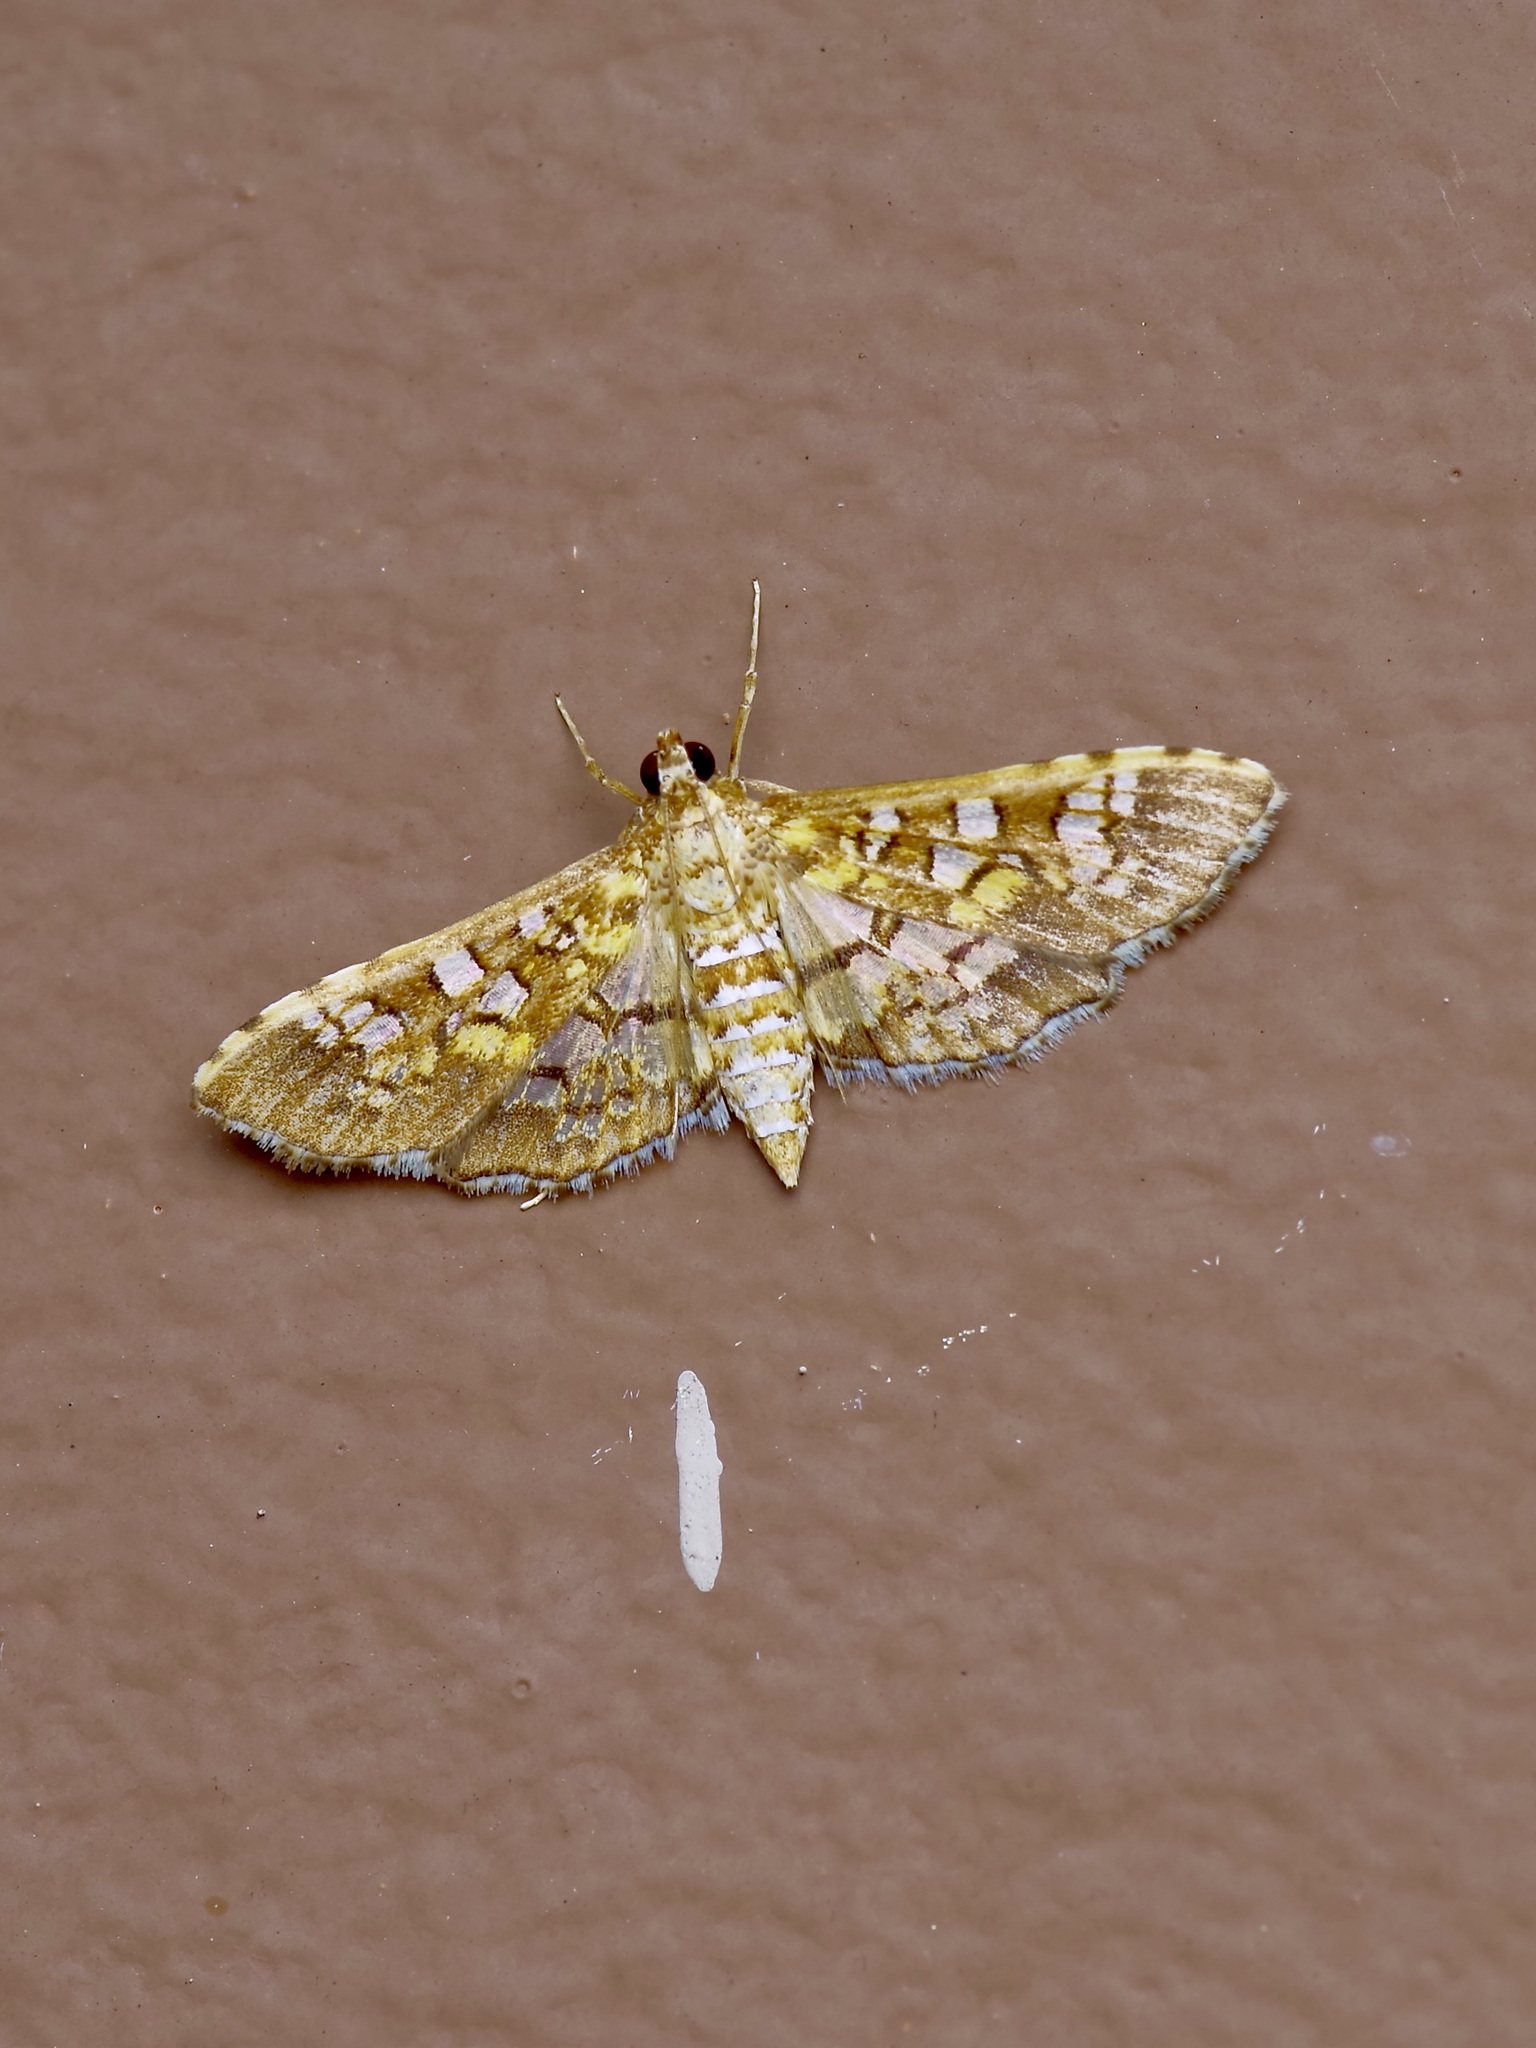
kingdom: Animalia
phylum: Arthropoda
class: Insecta
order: Lepidoptera
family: Crambidae
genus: Samea
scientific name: Samea ecclesialis
